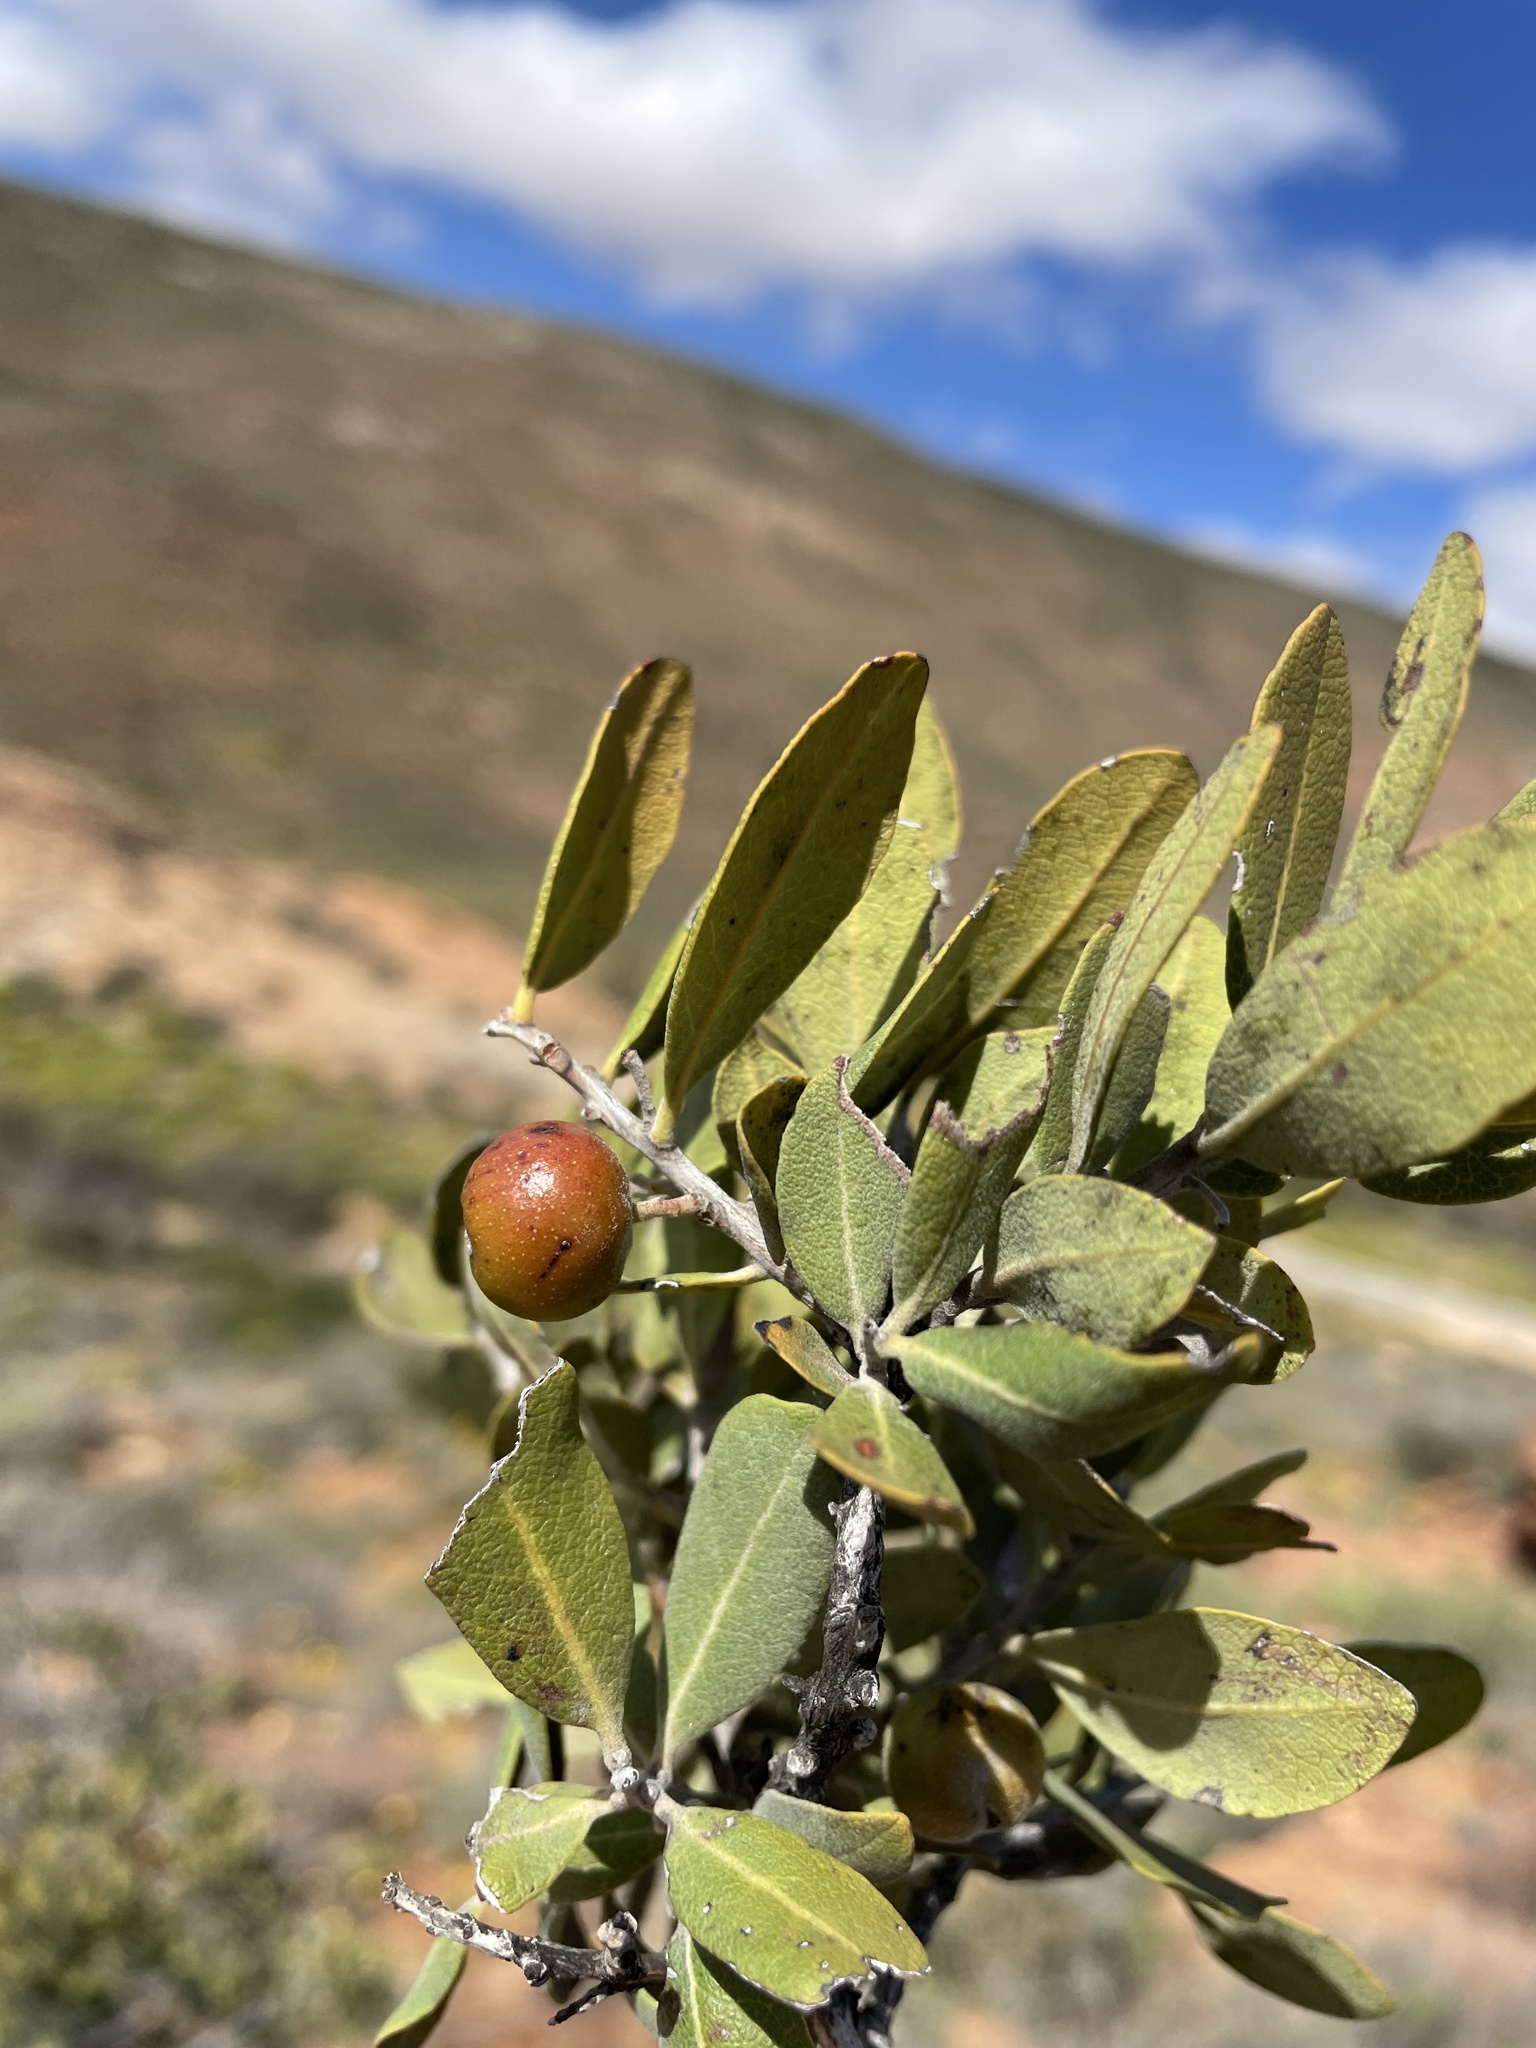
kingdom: Plantae
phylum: Tracheophyta
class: Magnoliopsida
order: Ericales
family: Ebenaceae
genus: Euclea
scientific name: Euclea tomentosa
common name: Honey guarri
